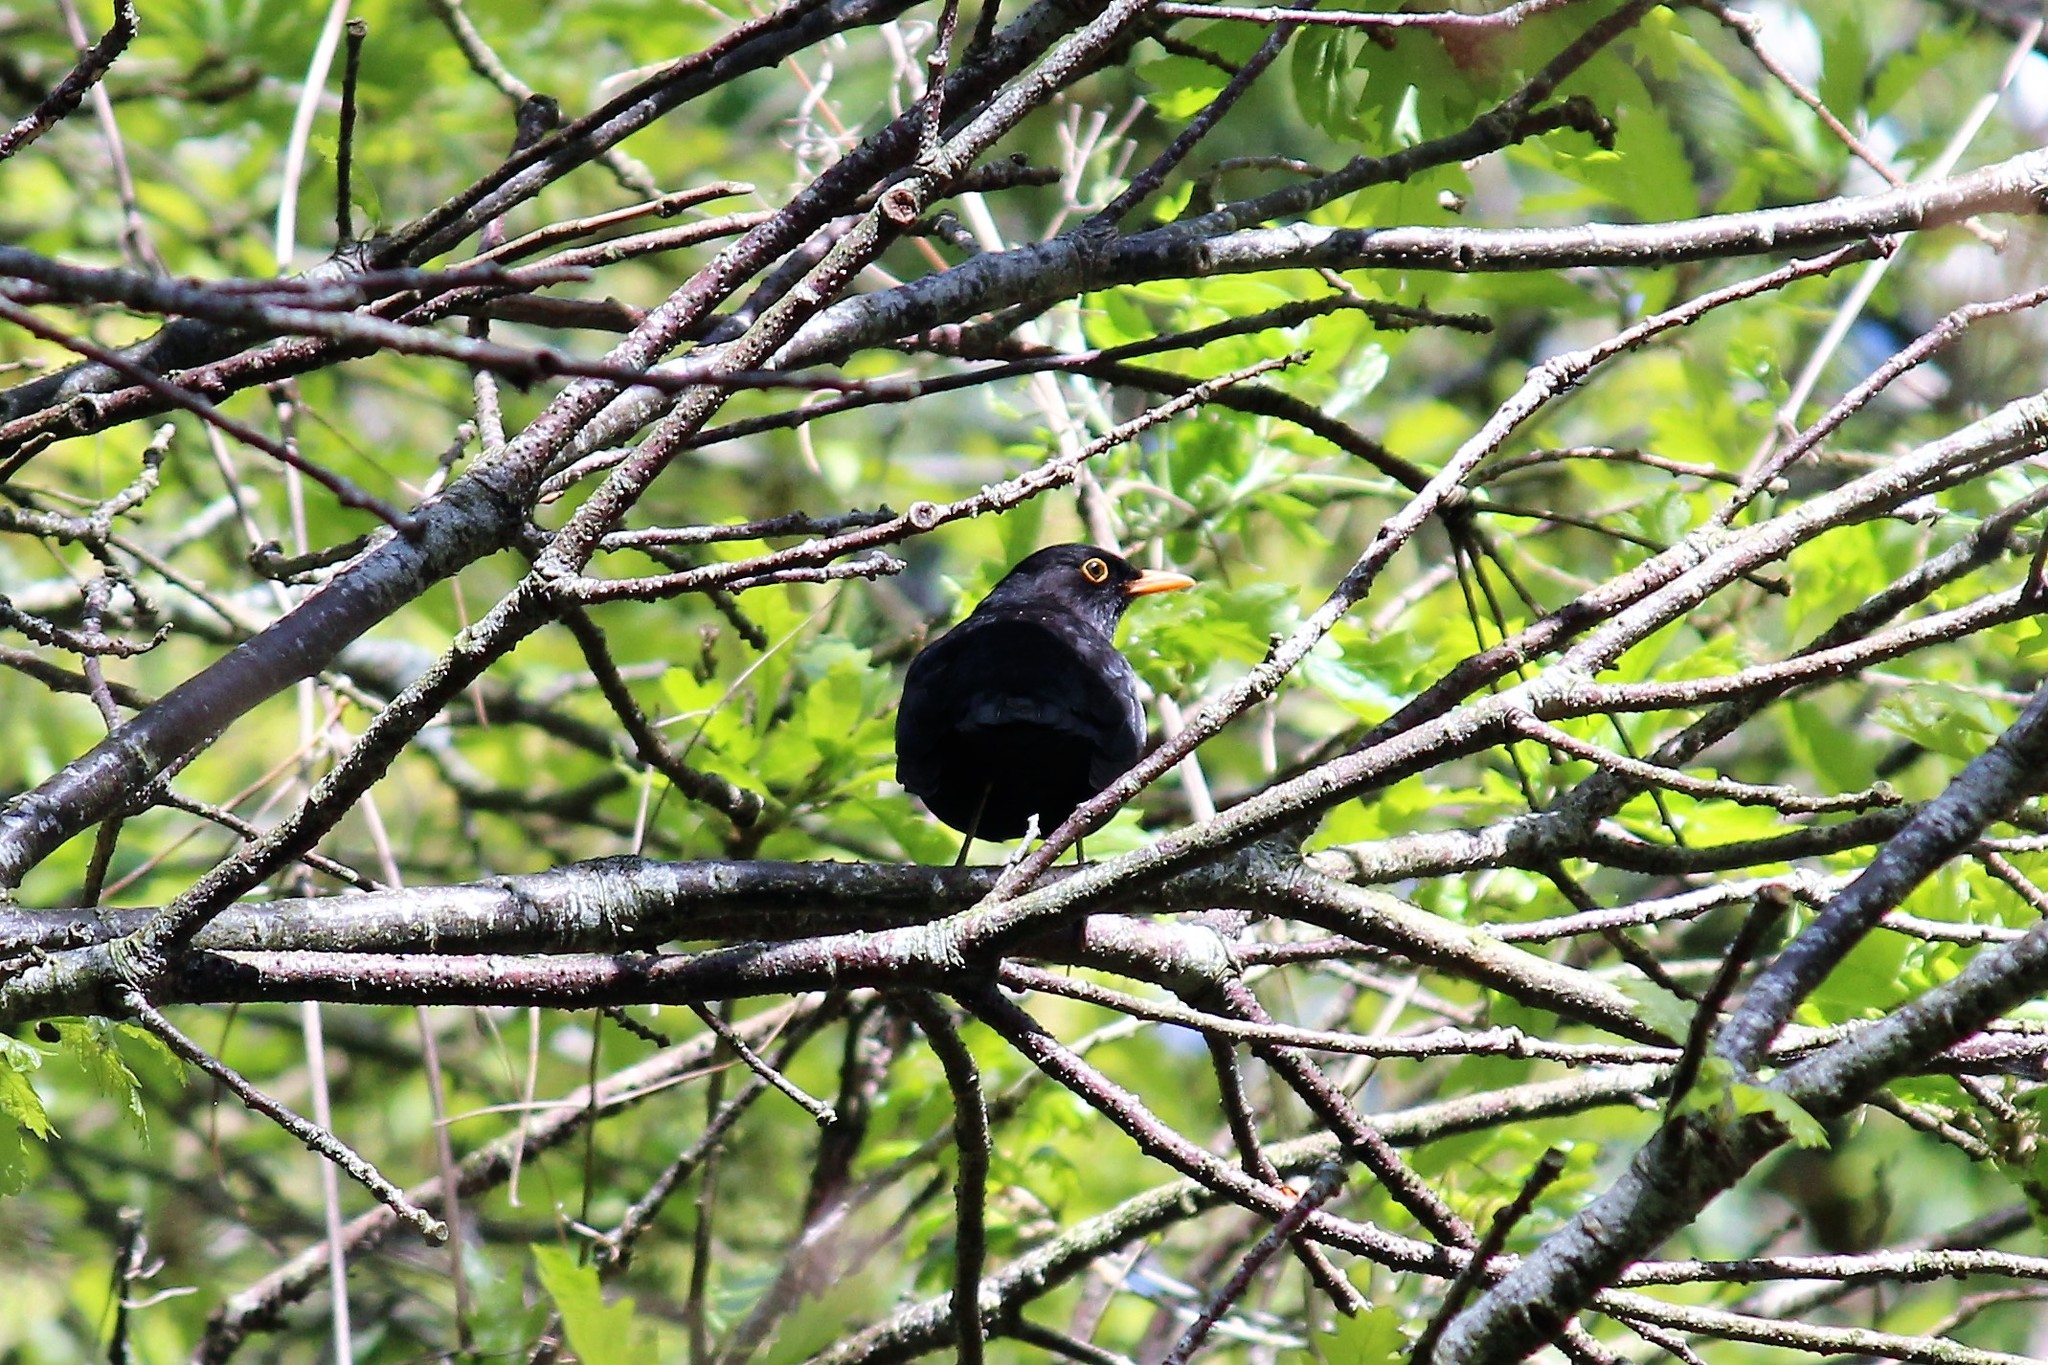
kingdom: Animalia
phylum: Chordata
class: Aves
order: Passeriformes
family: Turdidae
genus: Turdus
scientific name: Turdus merula
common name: Common blackbird
